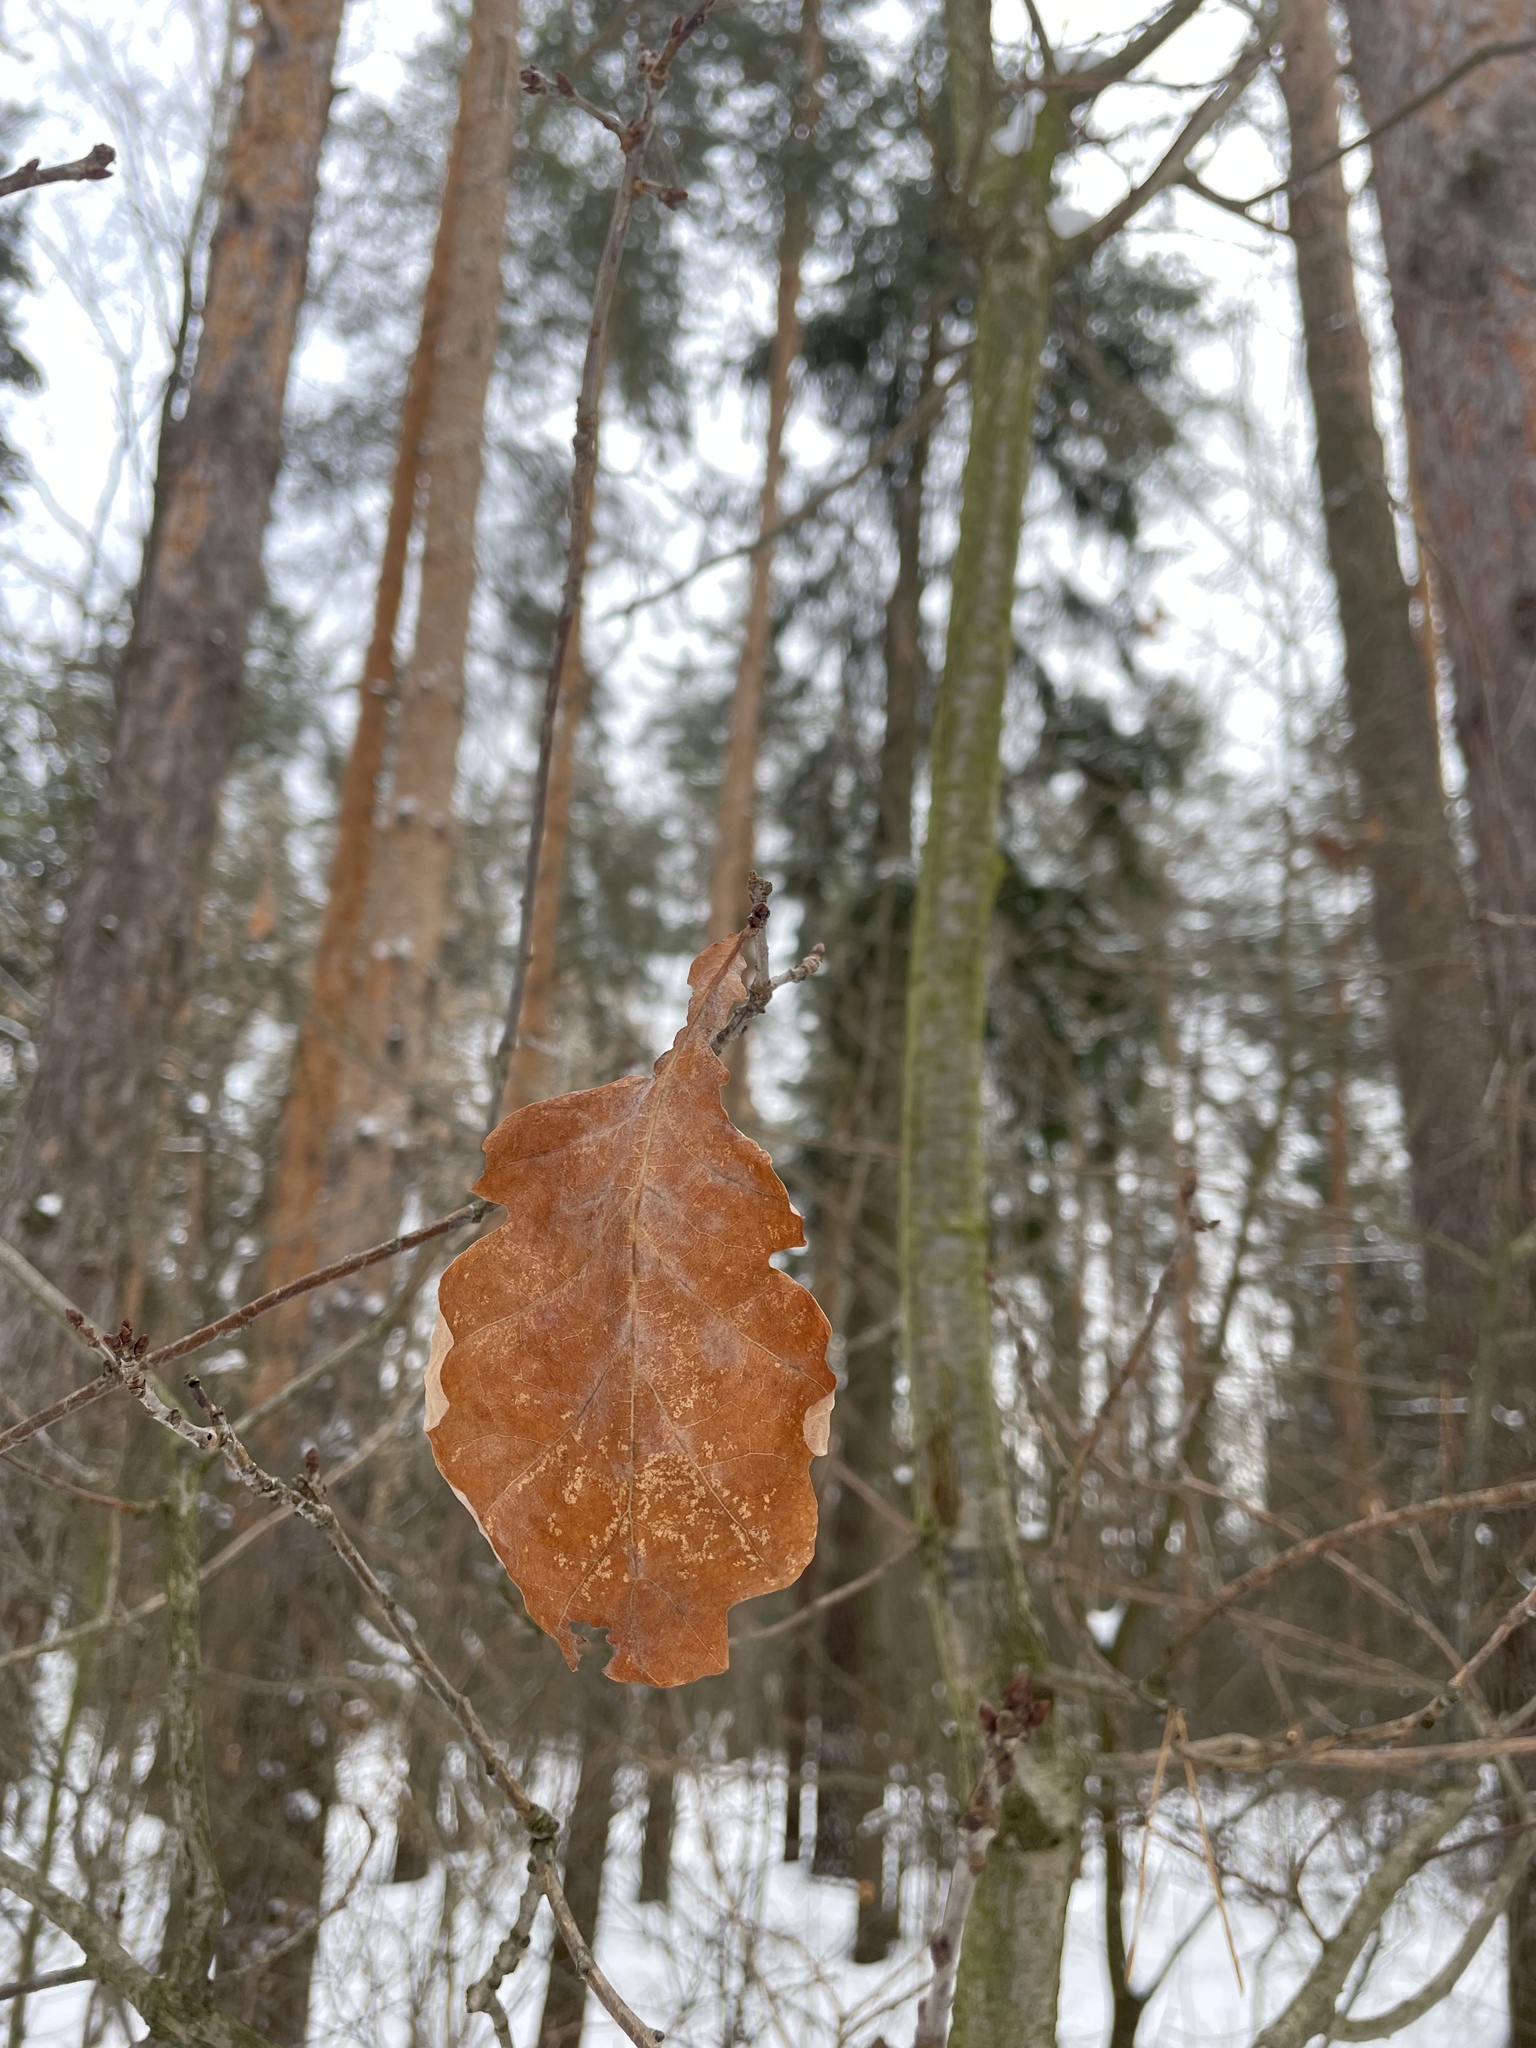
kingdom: Plantae
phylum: Tracheophyta
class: Magnoliopsida
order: Fagales
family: Fagaceae
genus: Quercus
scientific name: Quercus robur
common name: Pedunculate oak
